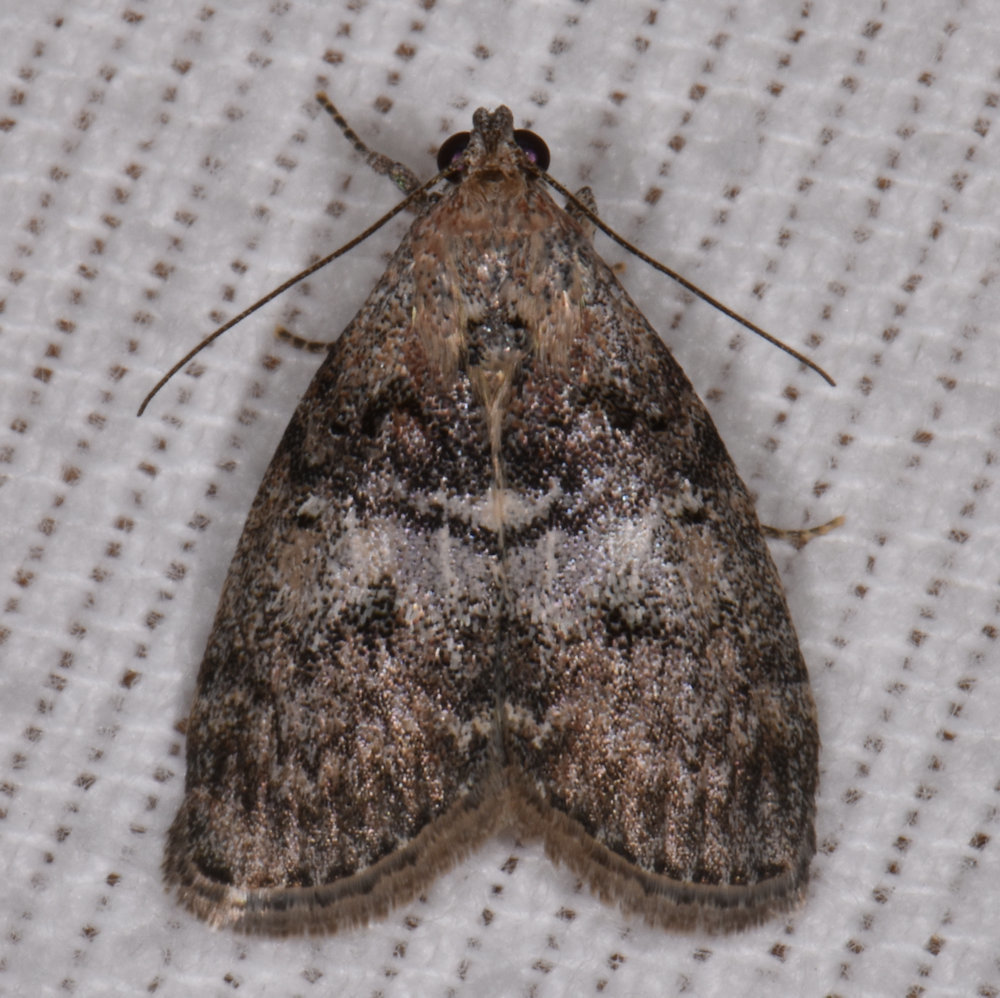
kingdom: Animalia
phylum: Arthropoda
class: Insecta
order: Lepidoptera
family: Pyralidae
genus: Pococera
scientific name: Pococera asperatella
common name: Maple webworm moth
